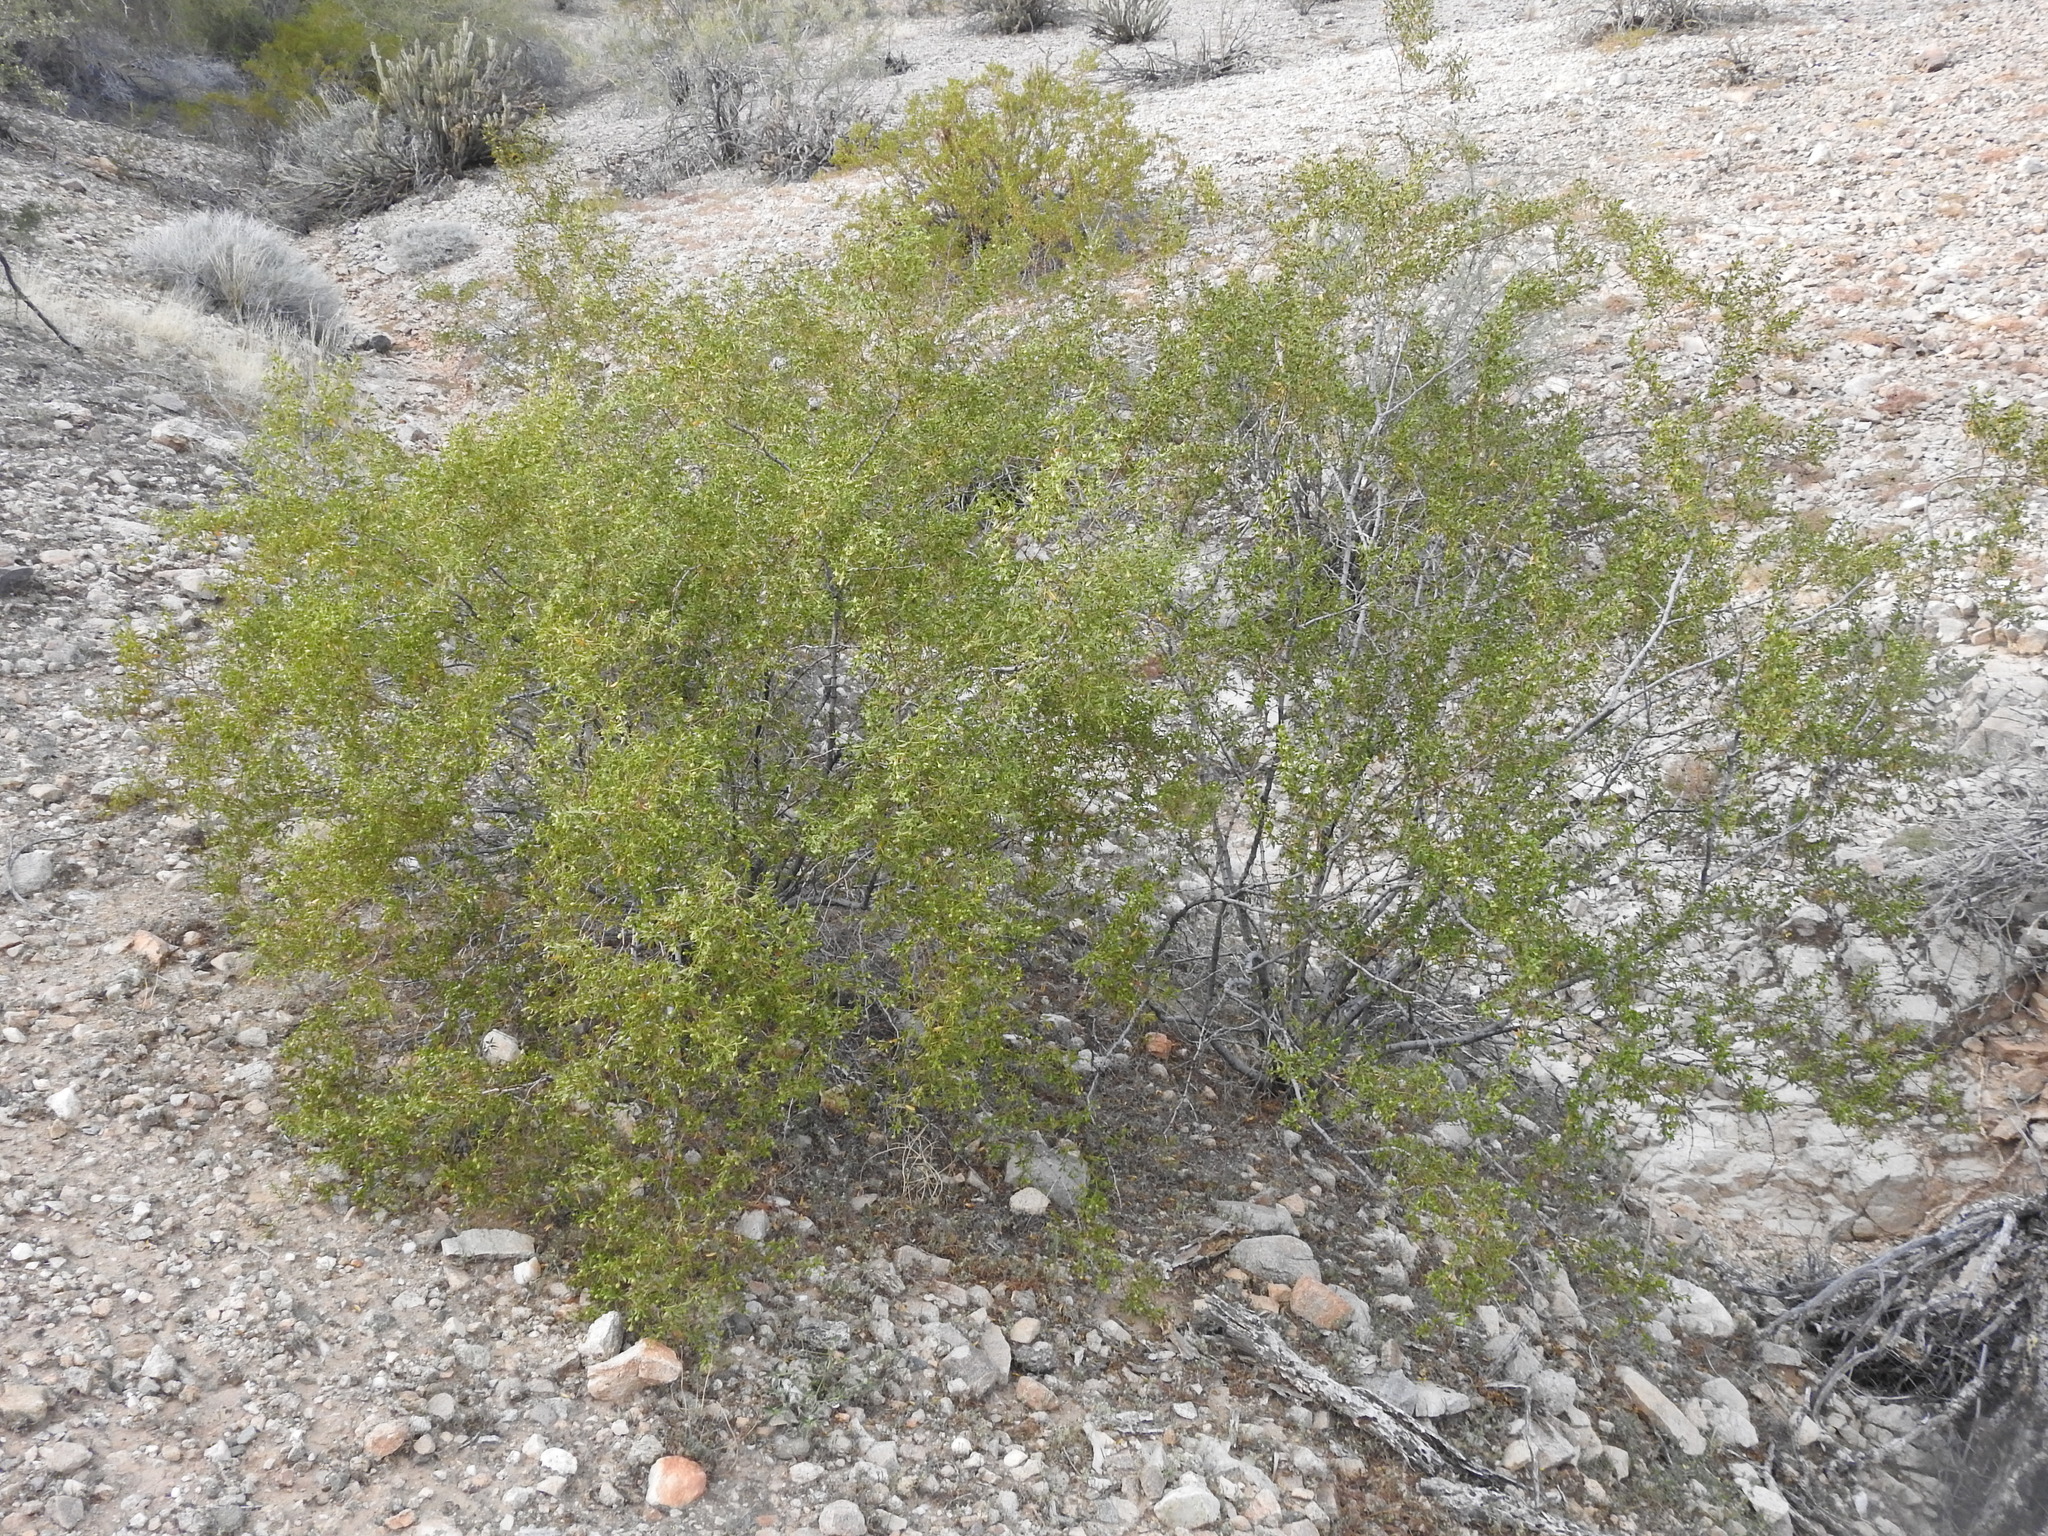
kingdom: Plantae
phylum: Tracheophyta
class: Magnoliopsida
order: Zygophyllales
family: Zygophyllaceae
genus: Larrea
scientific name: Larrea tridentata
